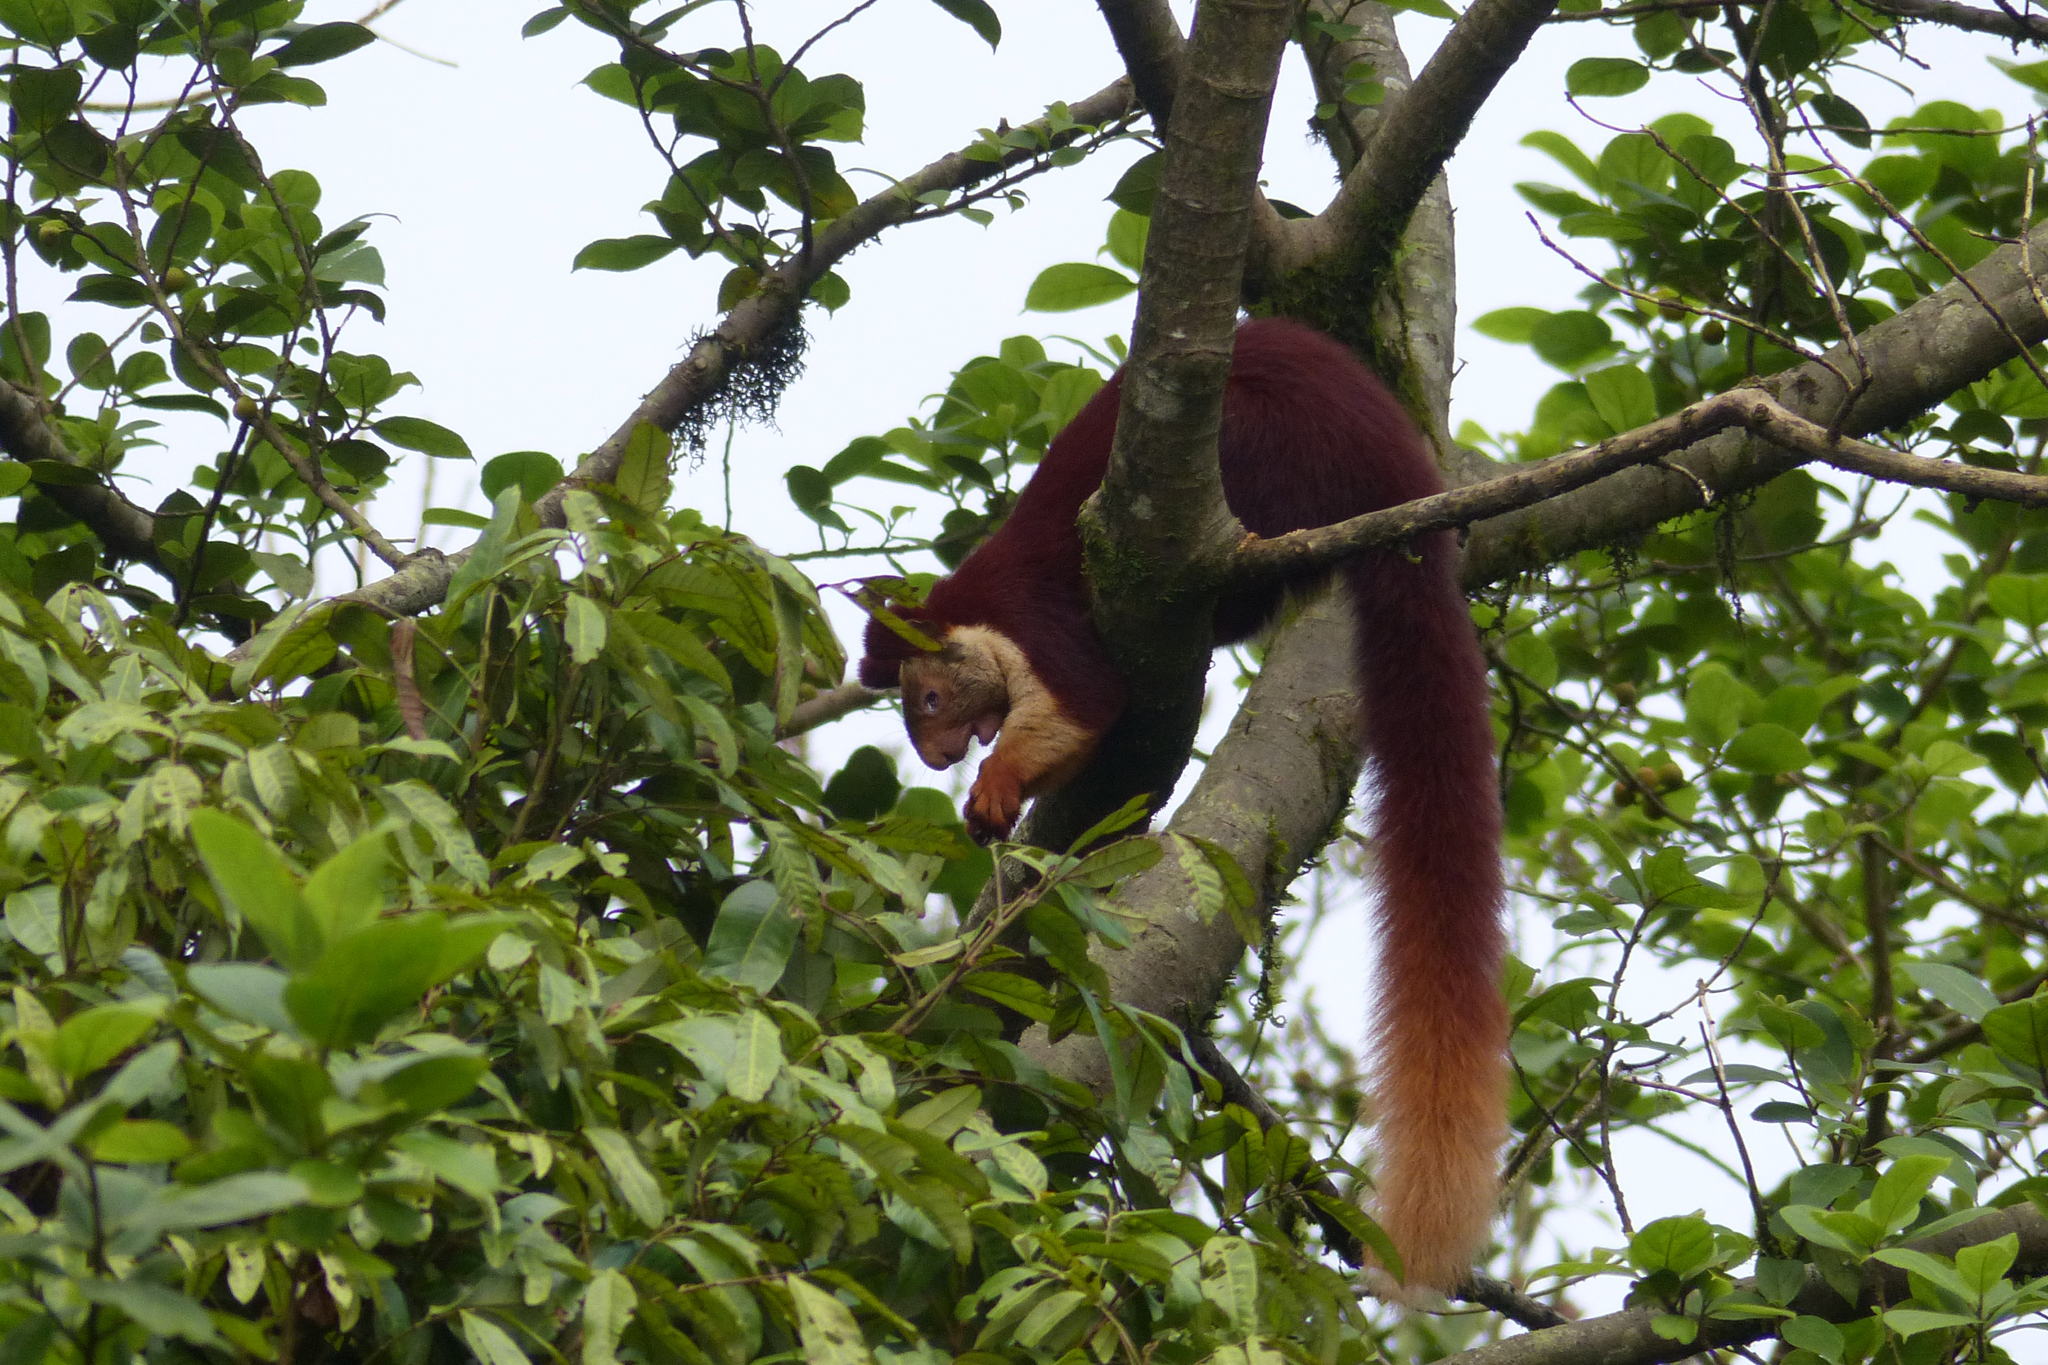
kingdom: Animalia
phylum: Chordata
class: Mammalia
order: Rodentia
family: Sciuridae
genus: Ratufa
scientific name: Ratufa indica
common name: Indian giant squirrel
